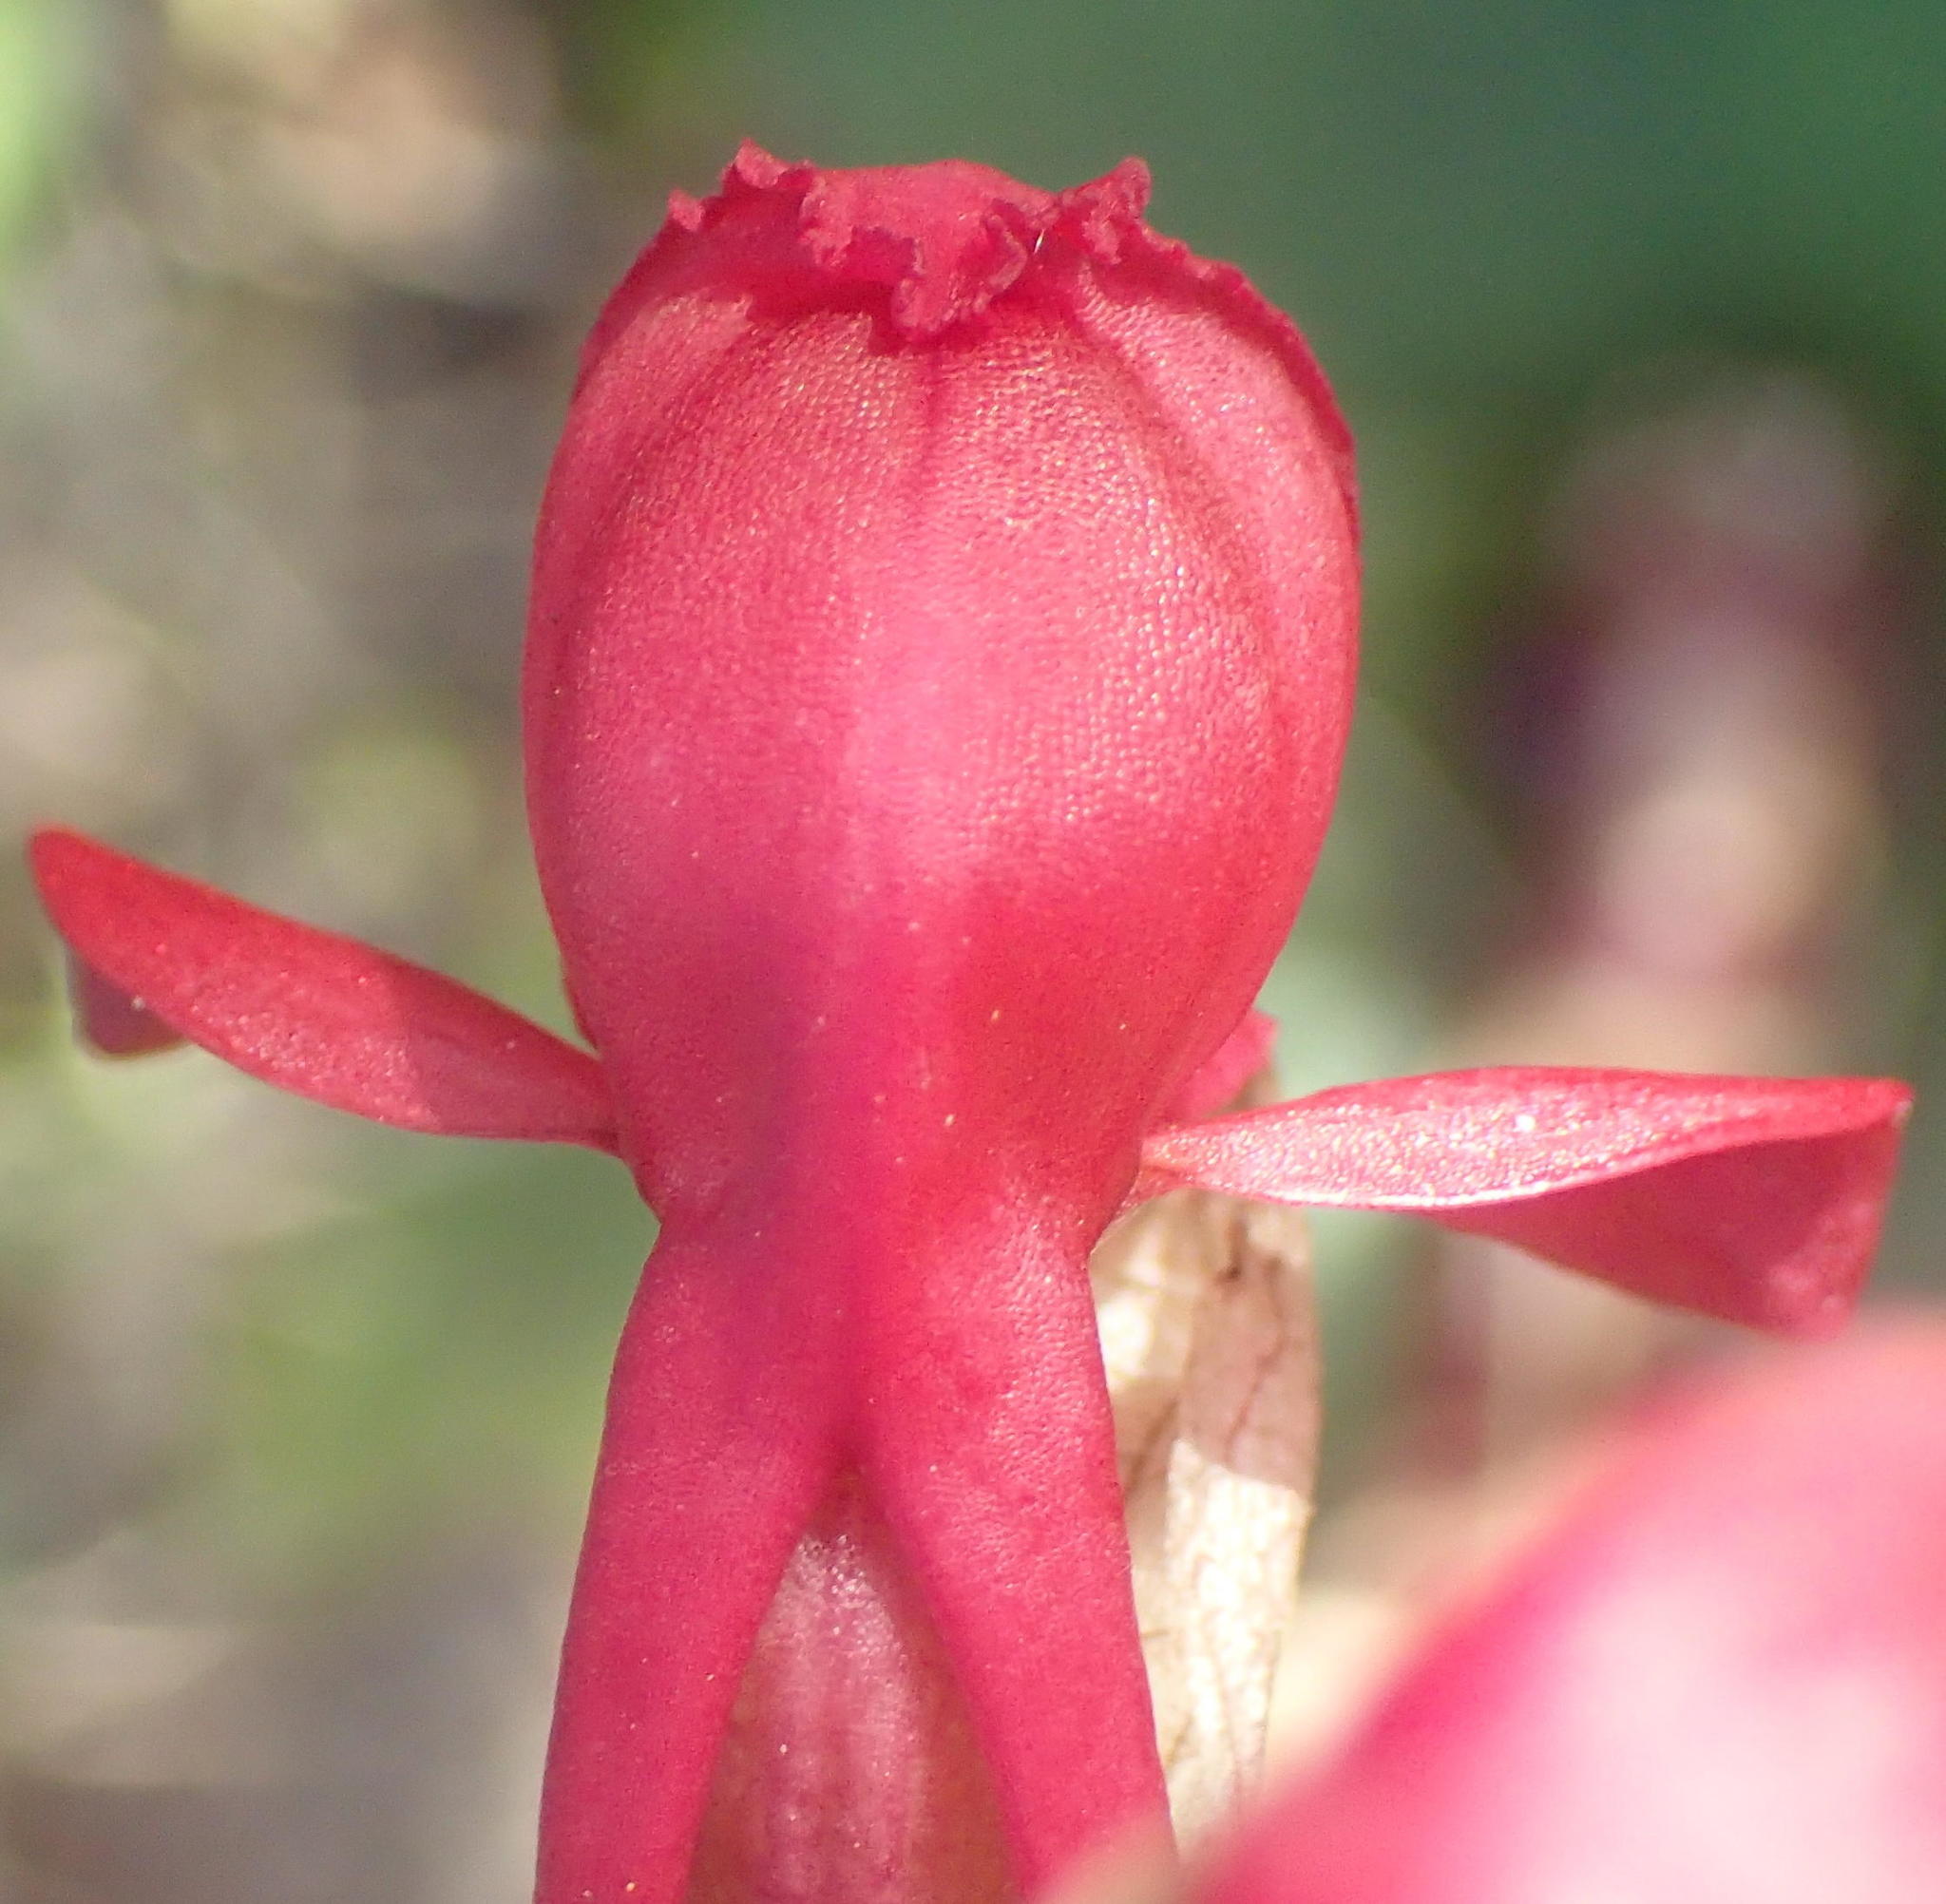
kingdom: Plantae
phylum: Tracheophyta
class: Liliopsida
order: Asparagales
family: Orchidaceae
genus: Satyrium
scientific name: Satyrium princeps
